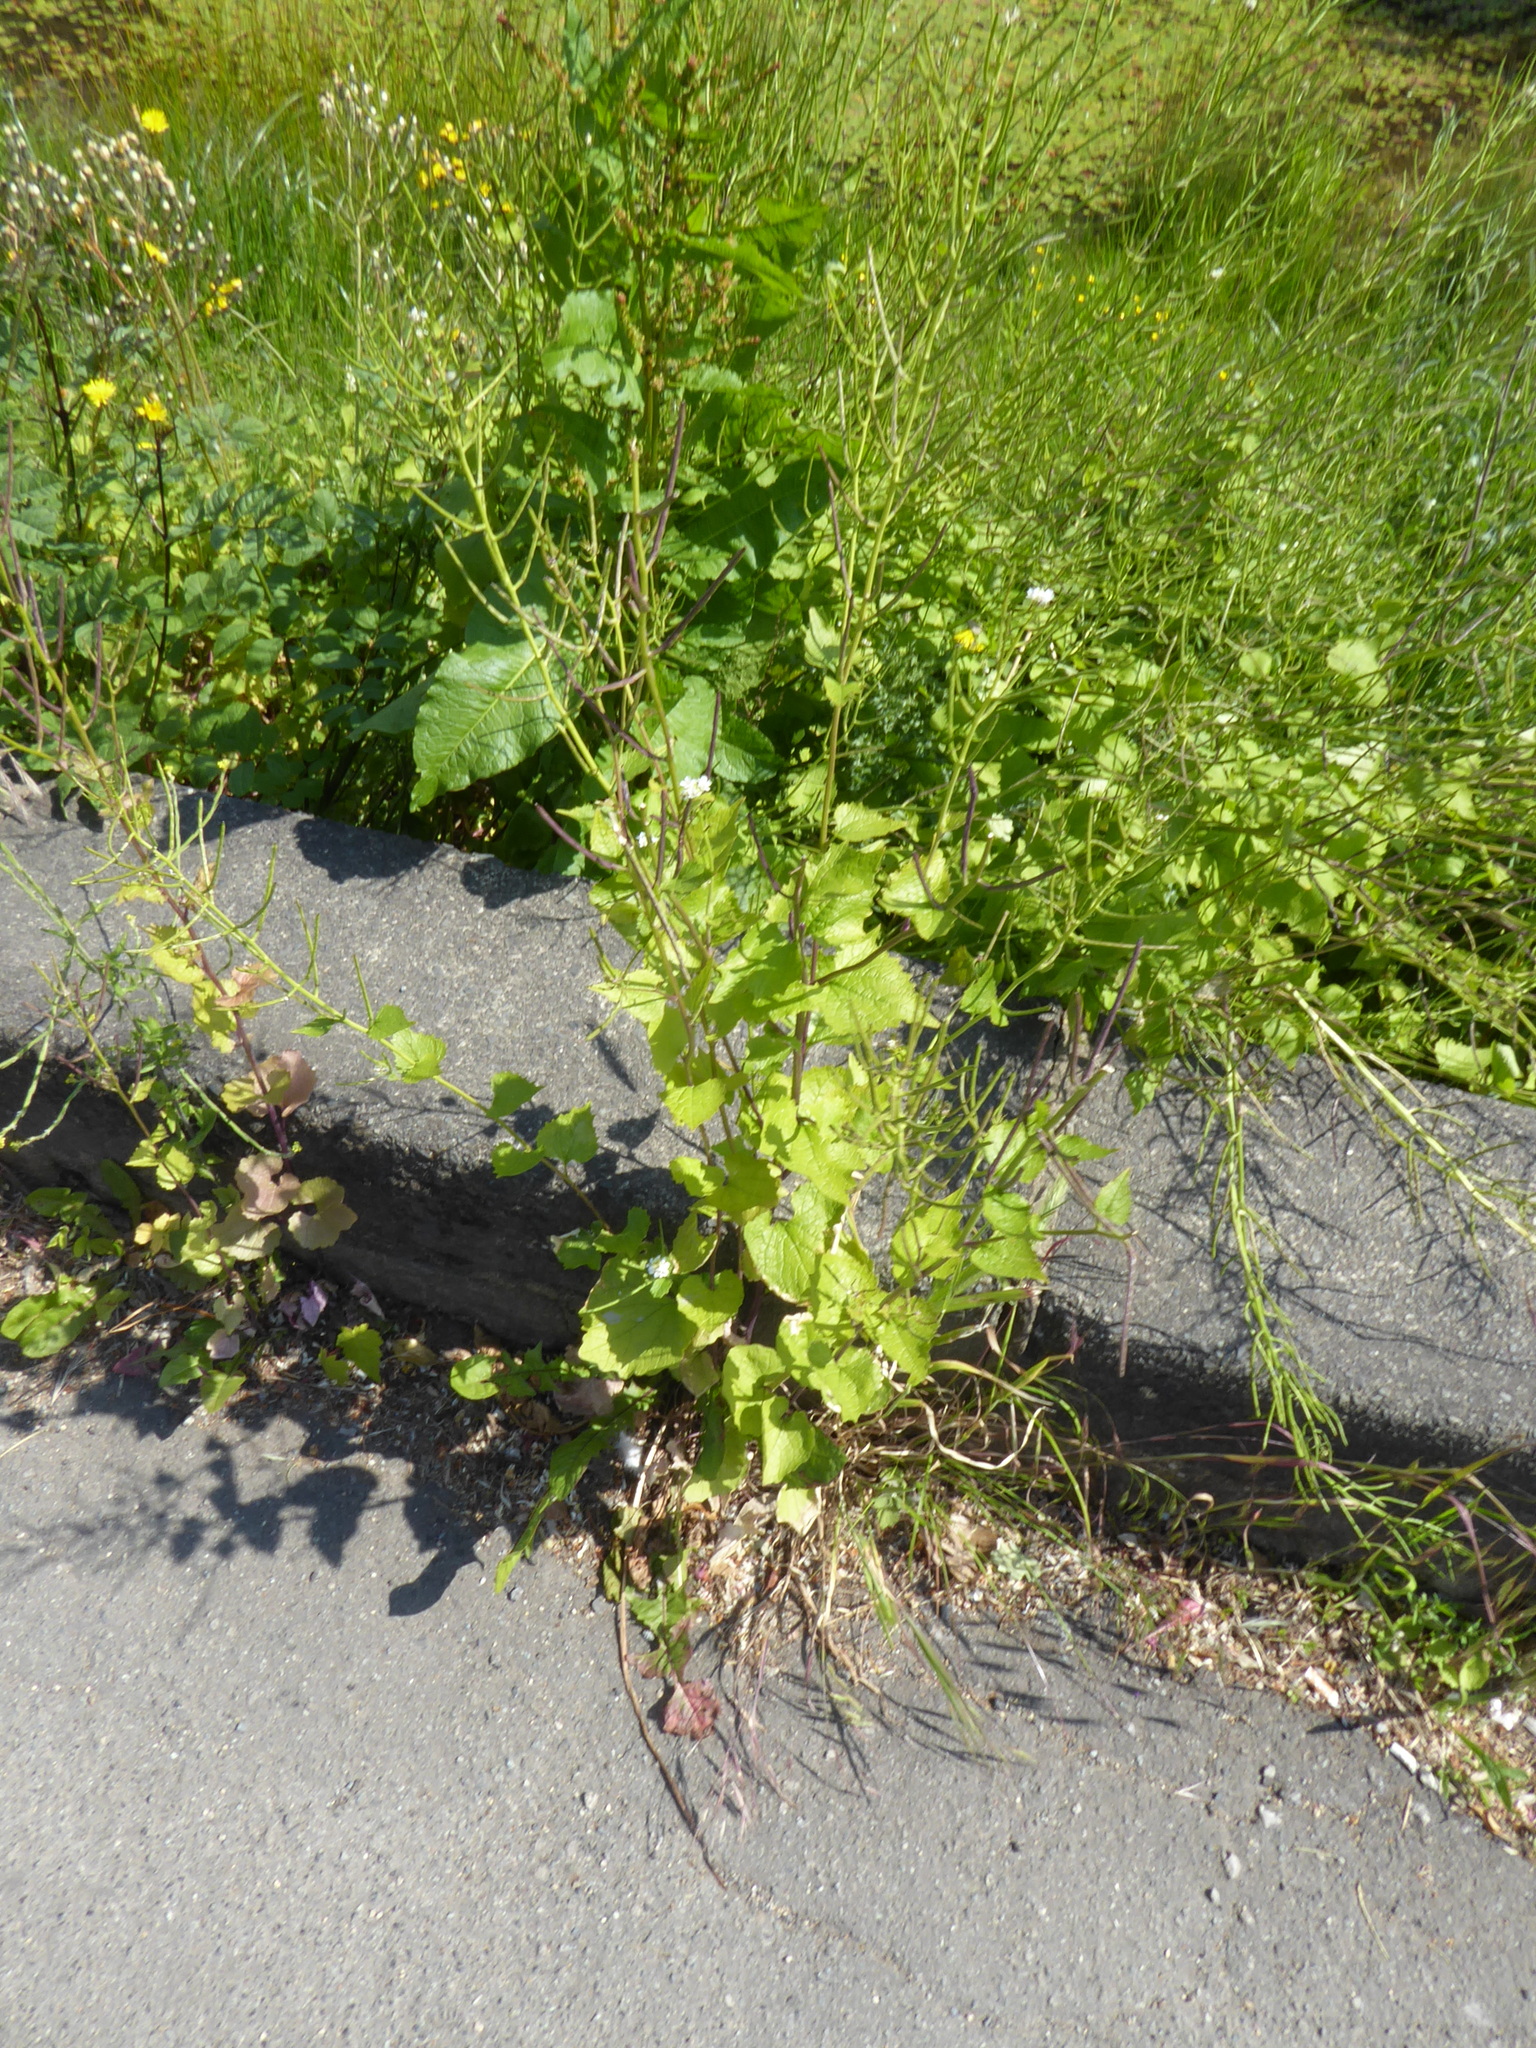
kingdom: Plantae
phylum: Tracheophyta
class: Magnoliopsida
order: Brassicales
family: Brassicaceae
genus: Alliaria
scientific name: Alliaria petiolata
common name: Garlic mustard
